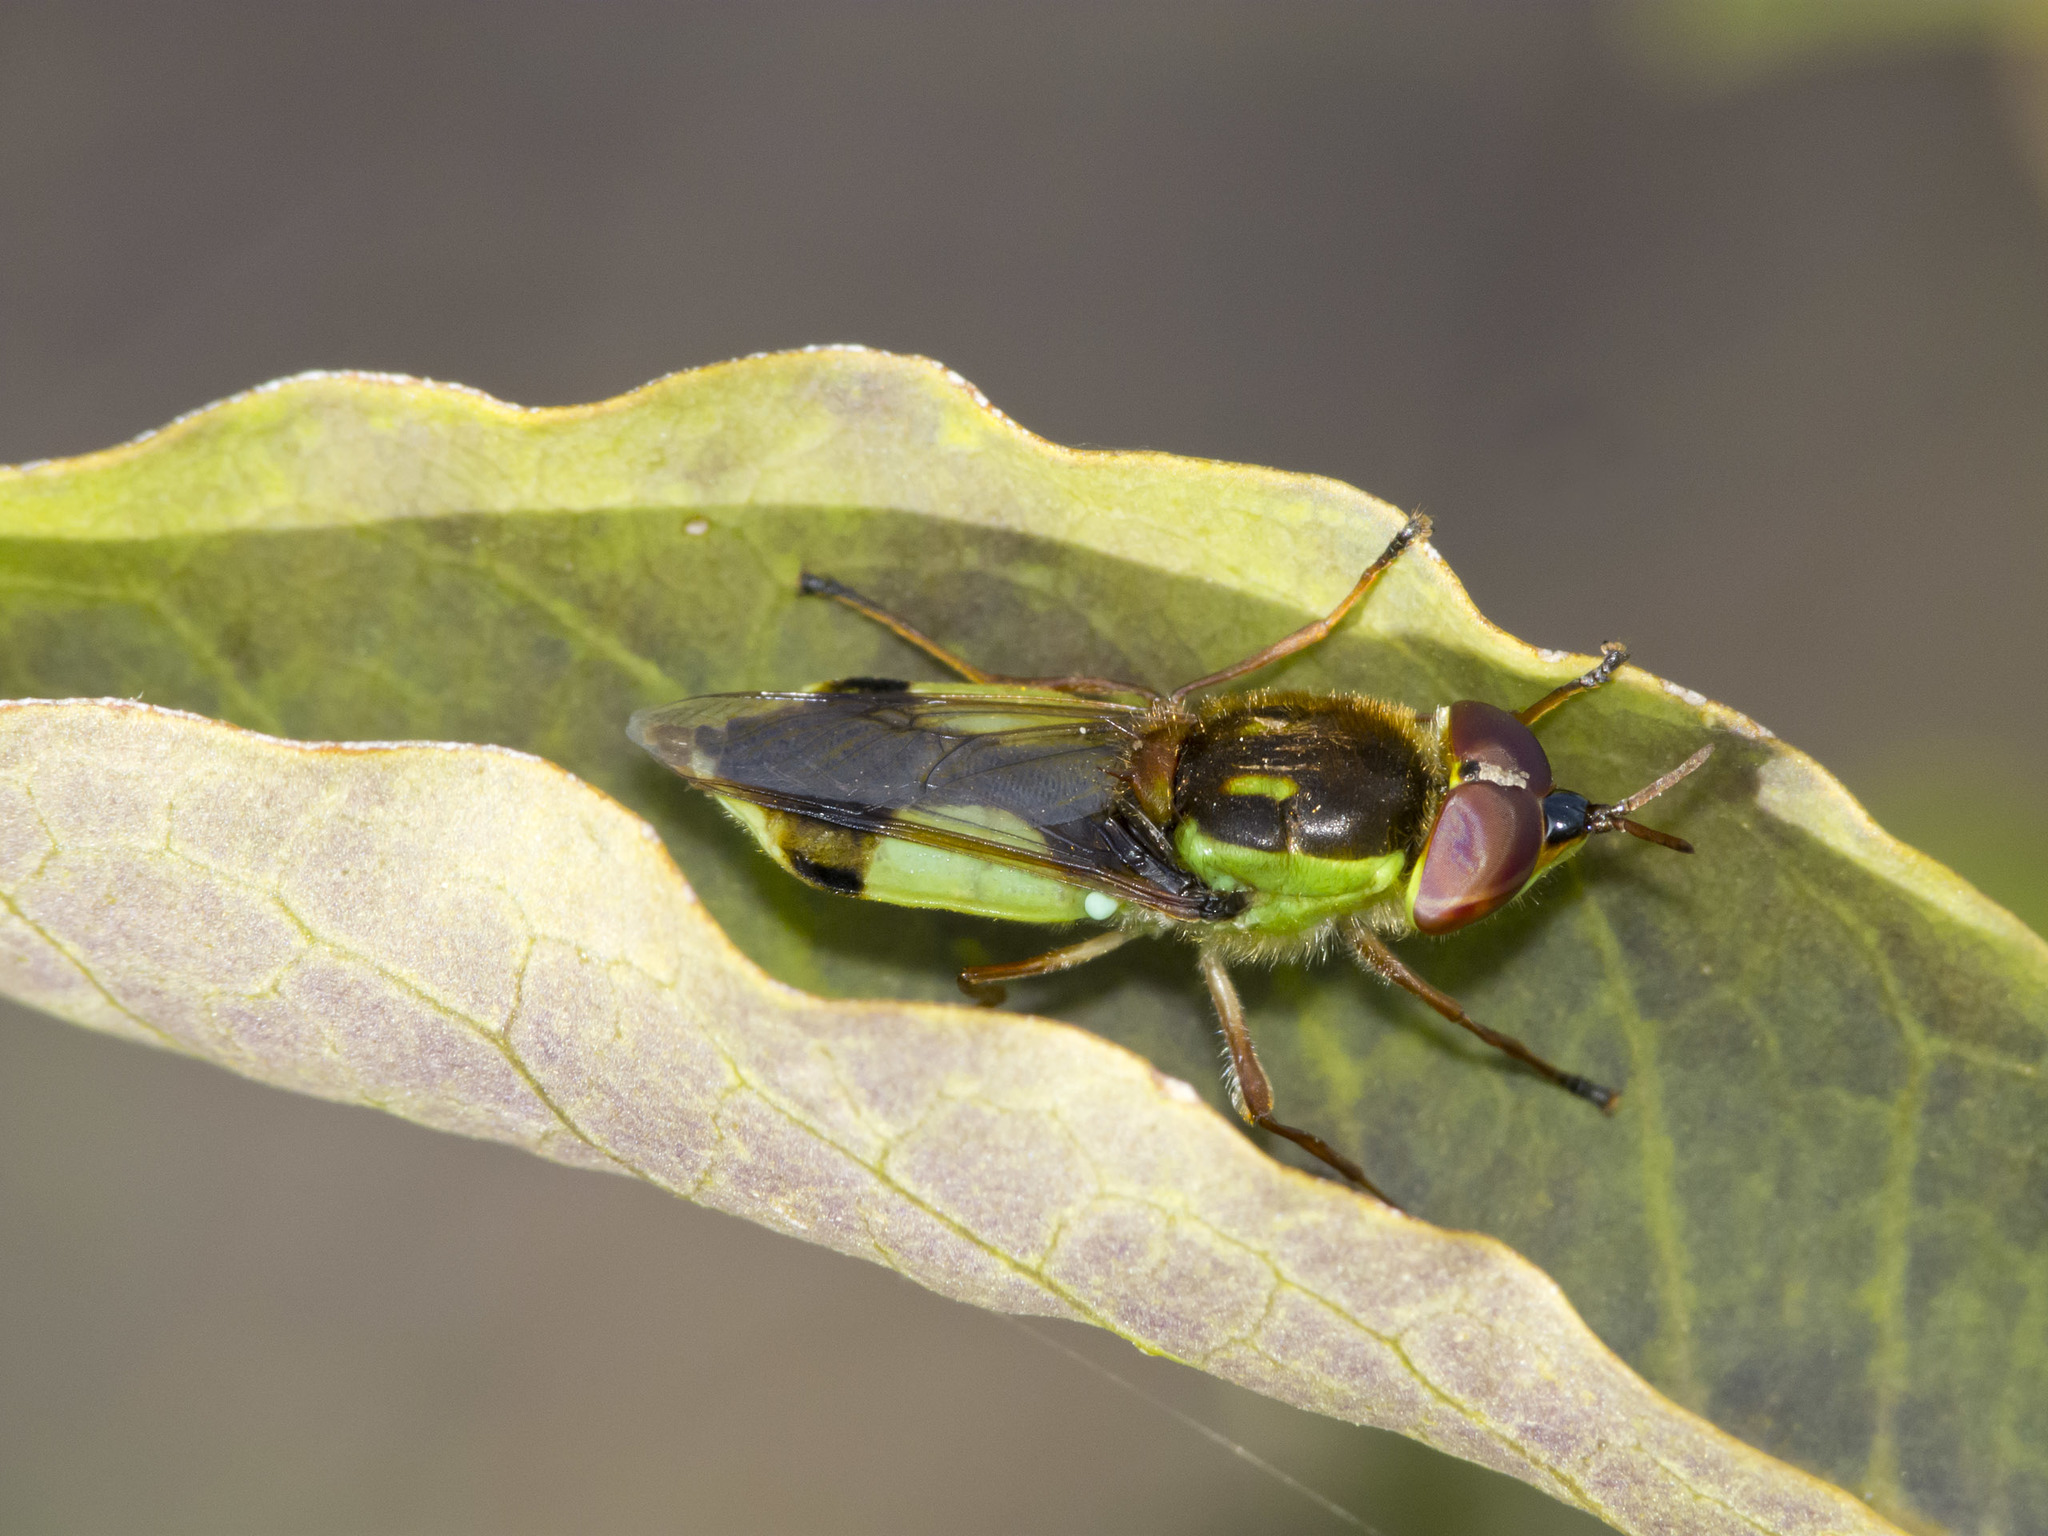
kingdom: Animalia
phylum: Arthropoda
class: Insecta
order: Diptera
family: Stratiomyidae
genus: Hedriodiscus
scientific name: Hedriodiscus pulcher
